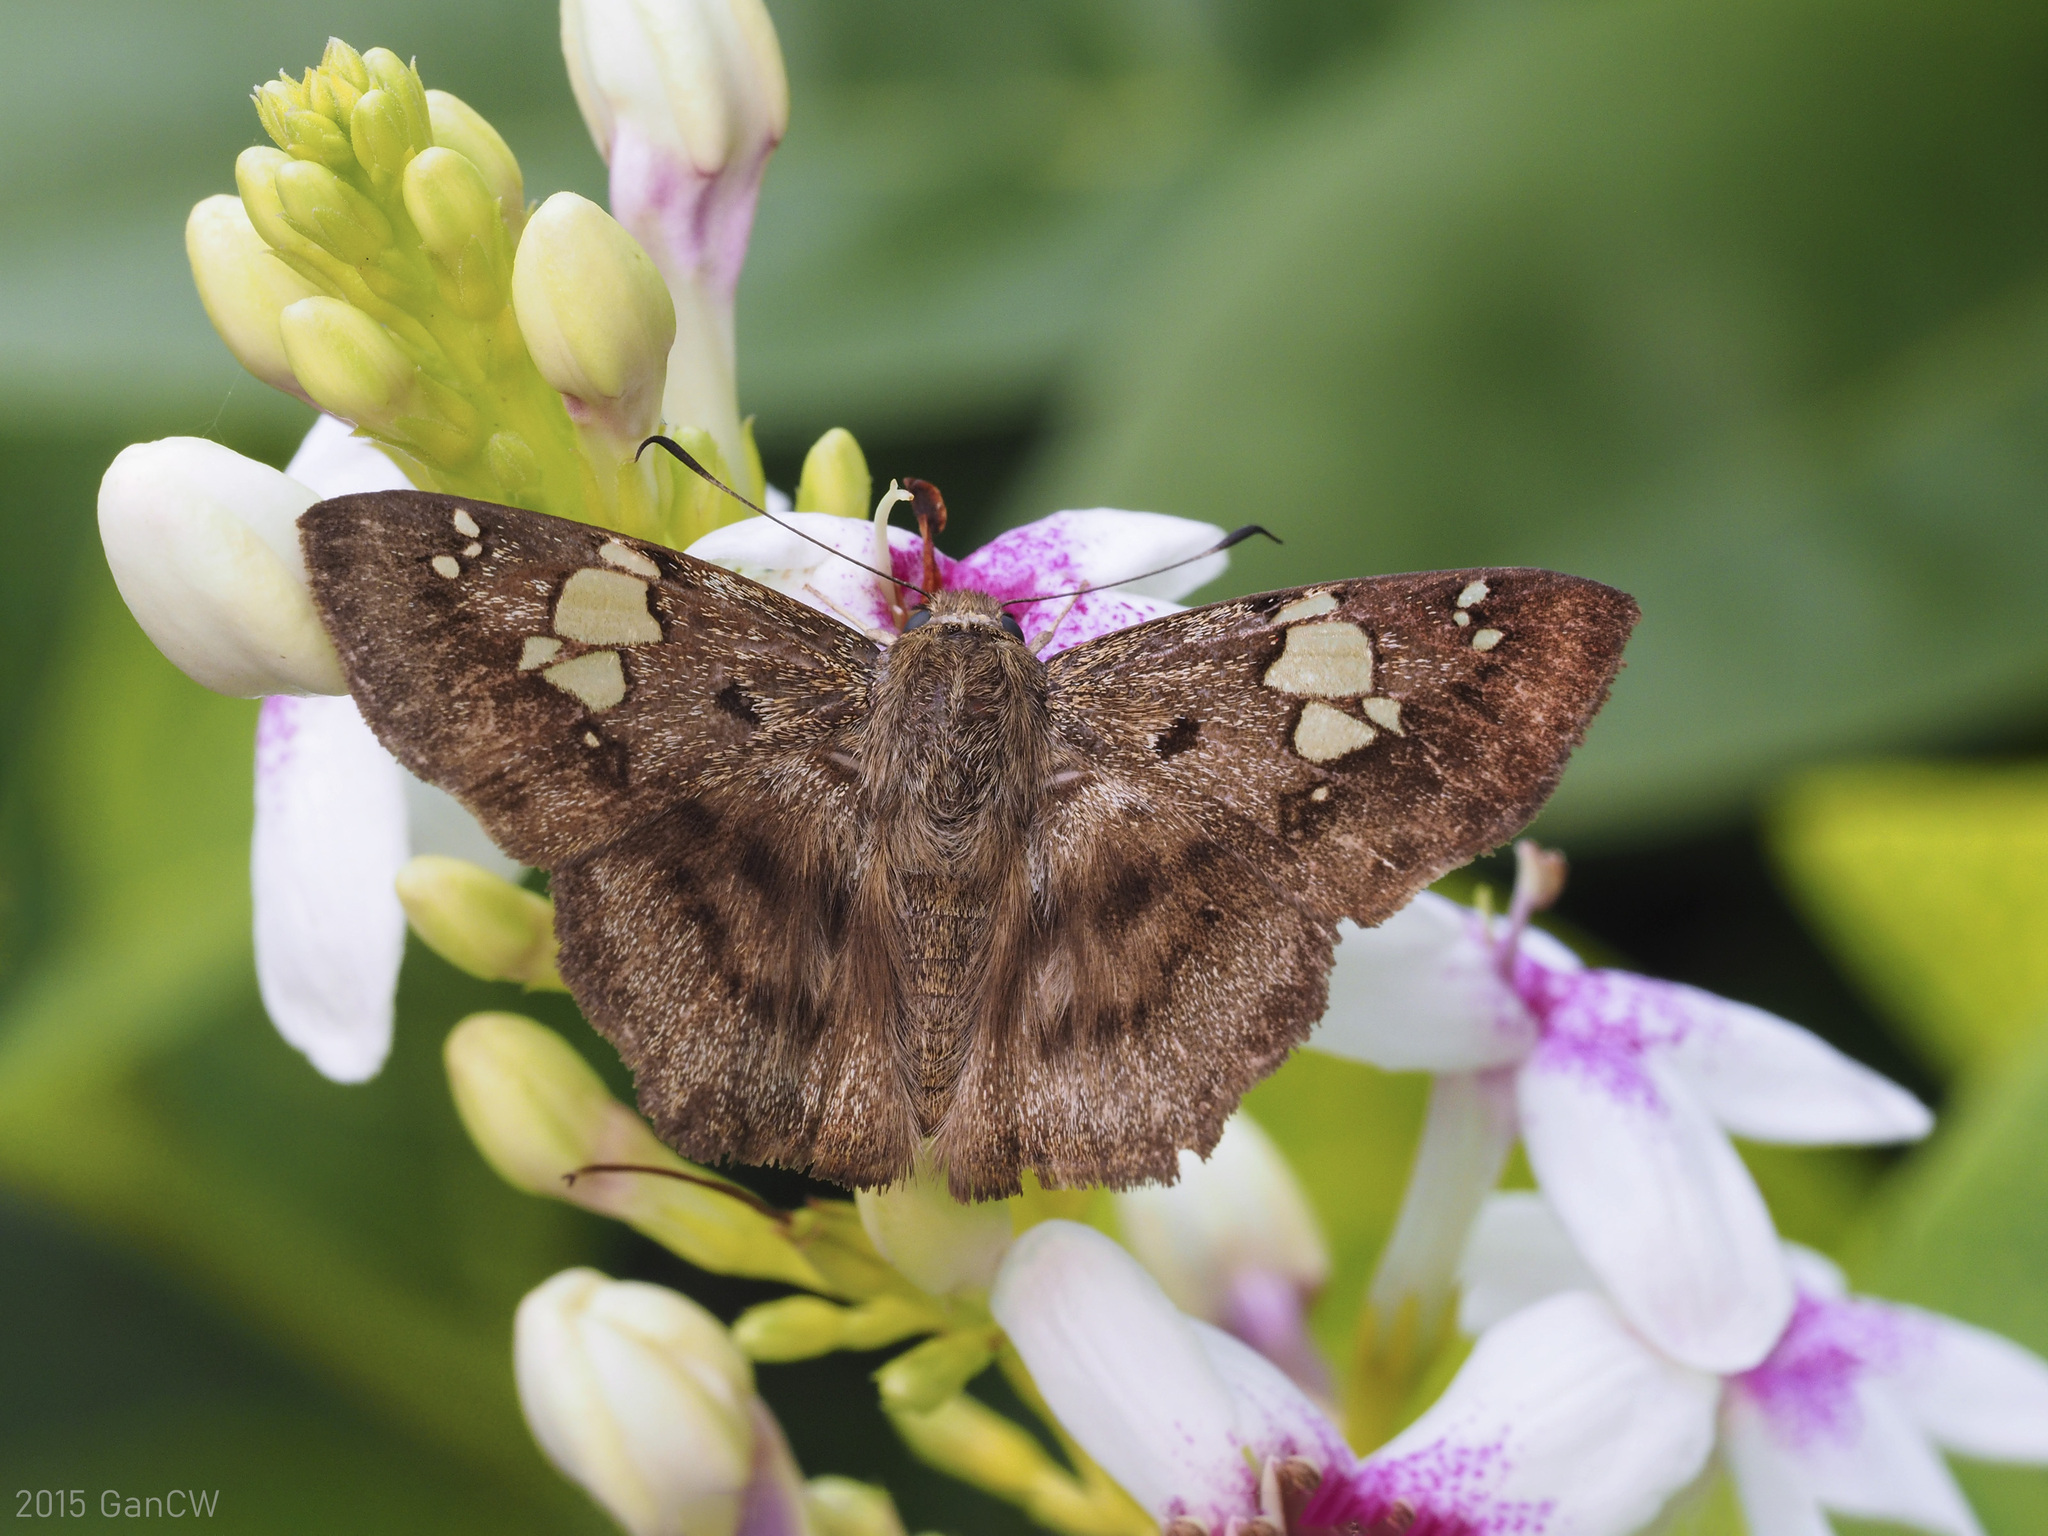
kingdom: Animalia
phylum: Arthropoda
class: Insecta
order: Lepidoptera
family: Hesperiidae
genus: Coladenia
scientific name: Coladenia
